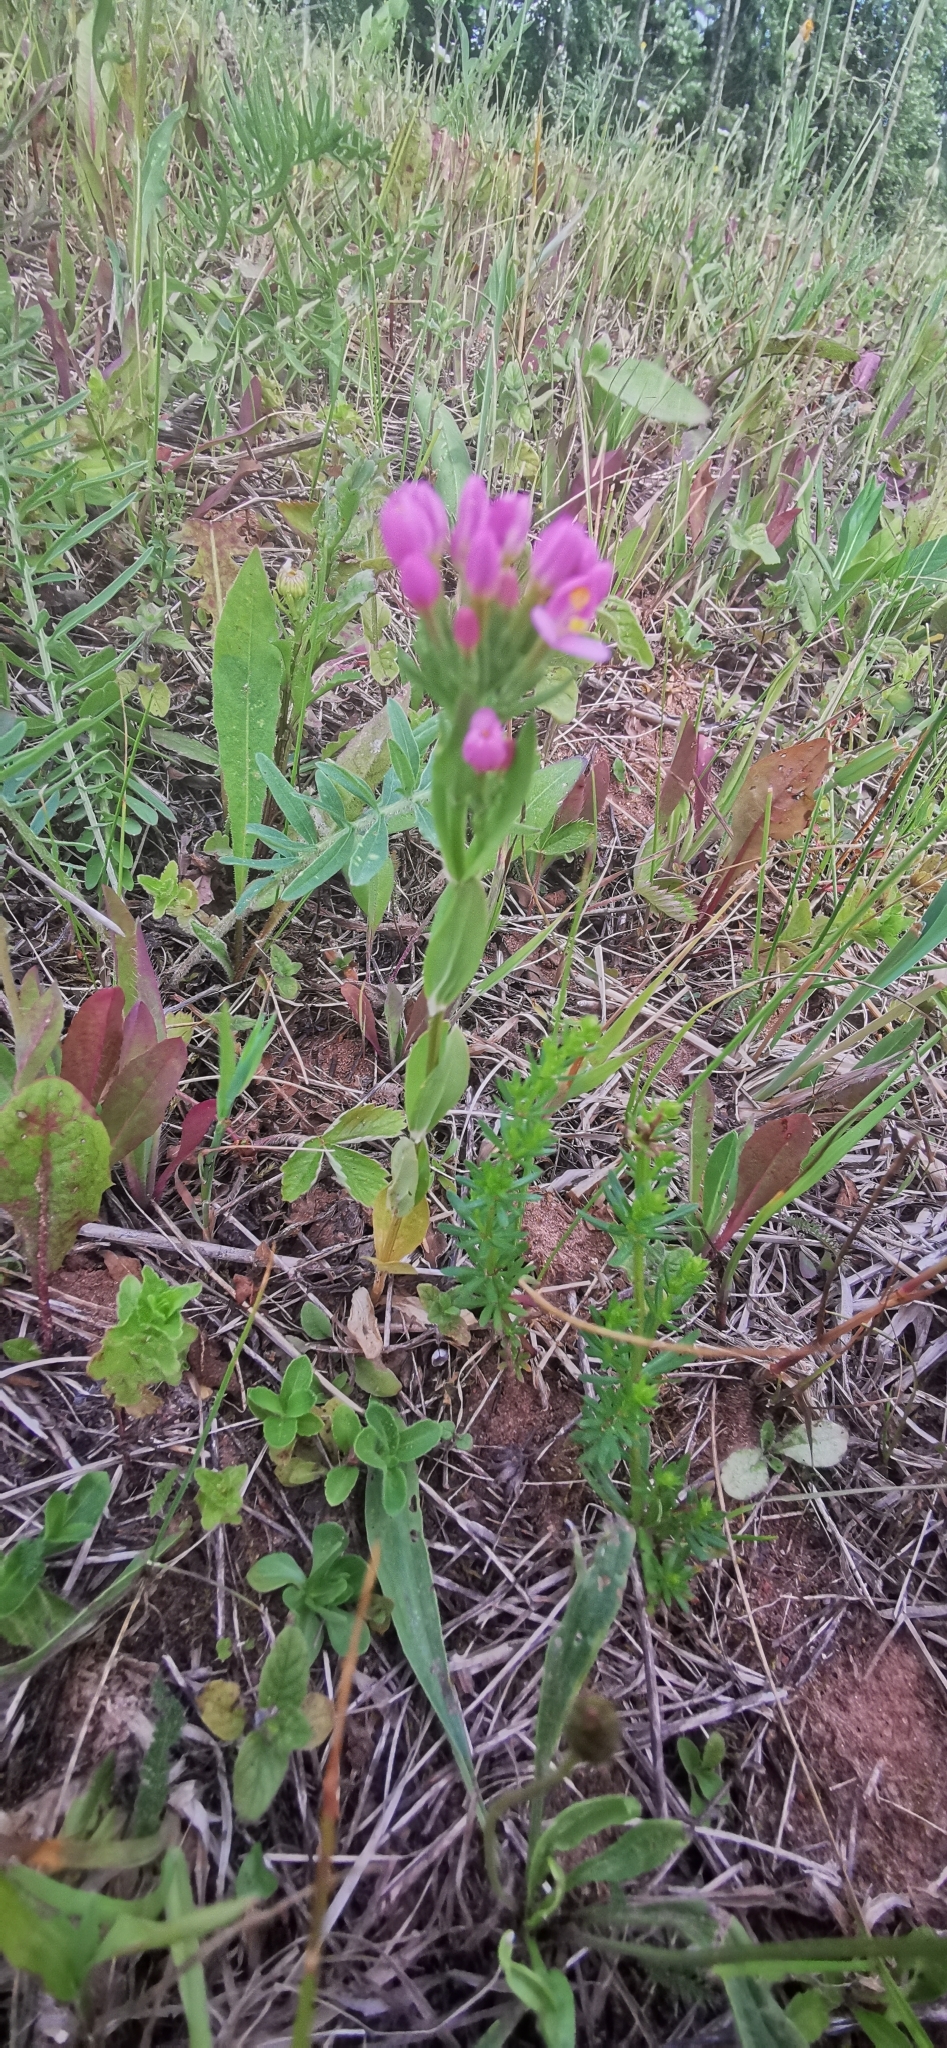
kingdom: Plantae
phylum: Tracheophyta
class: Magnoliopsida
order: Gentianales
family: Gentianaceae
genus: Centaurium
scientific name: Centaurium erythraea
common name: Common centaury
